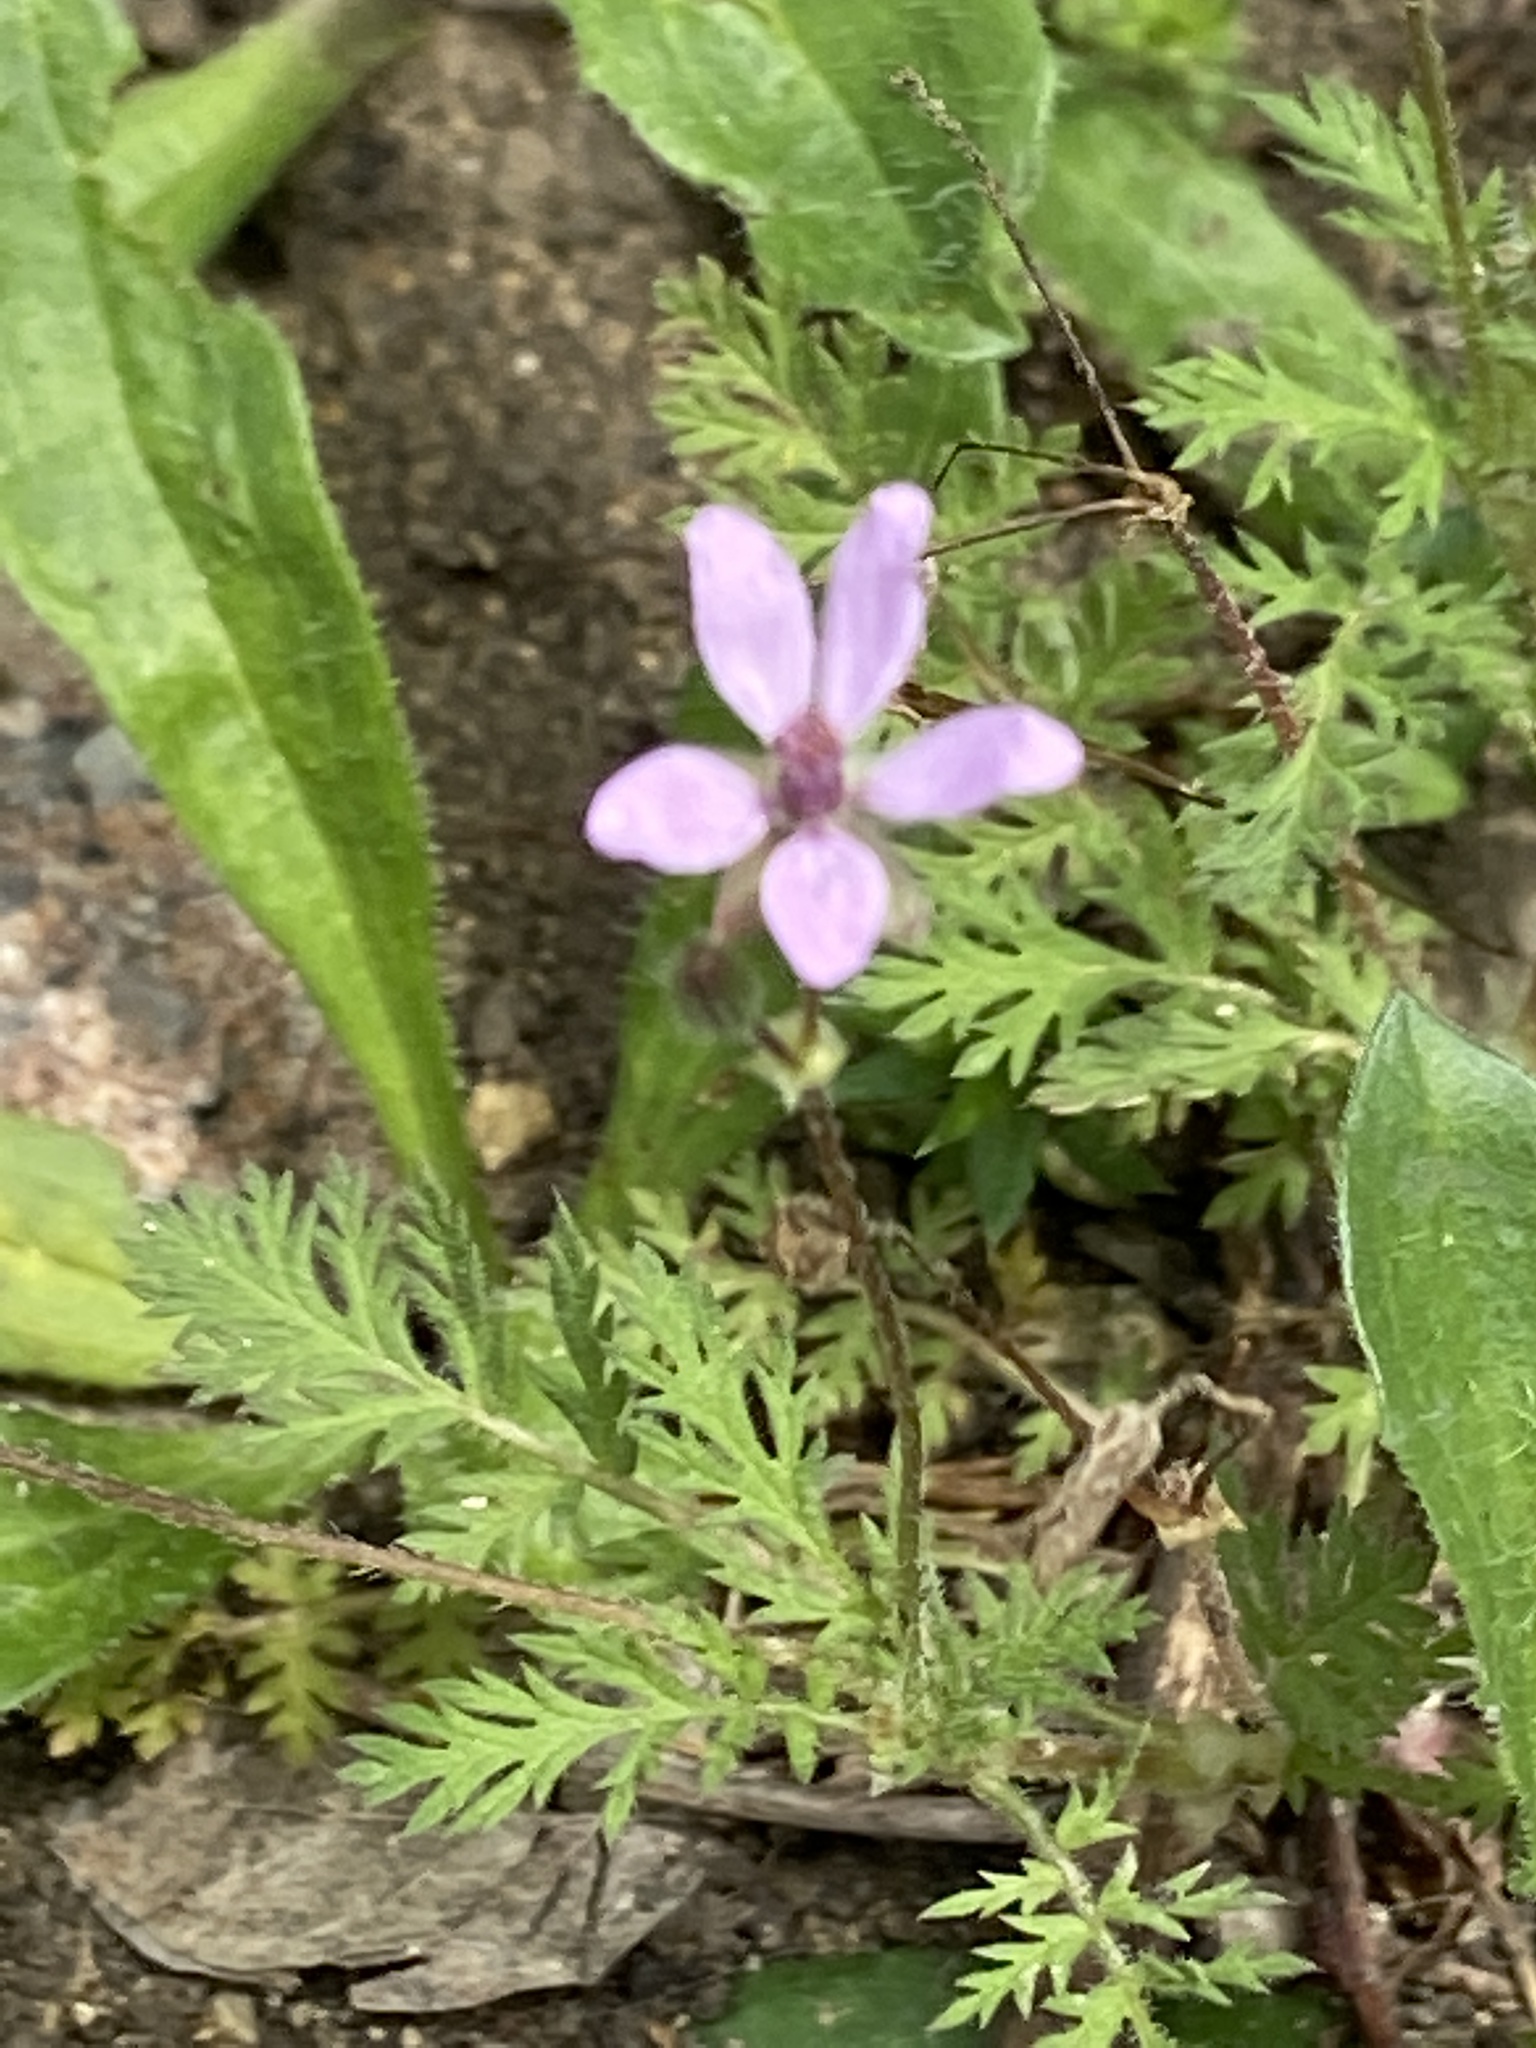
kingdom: Plantae
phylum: Tracheophyta
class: Magnoliopsida
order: Geraniales
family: Geraniaceae
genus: Erodium
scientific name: Erodium cicutarium
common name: Common stork's-bill
